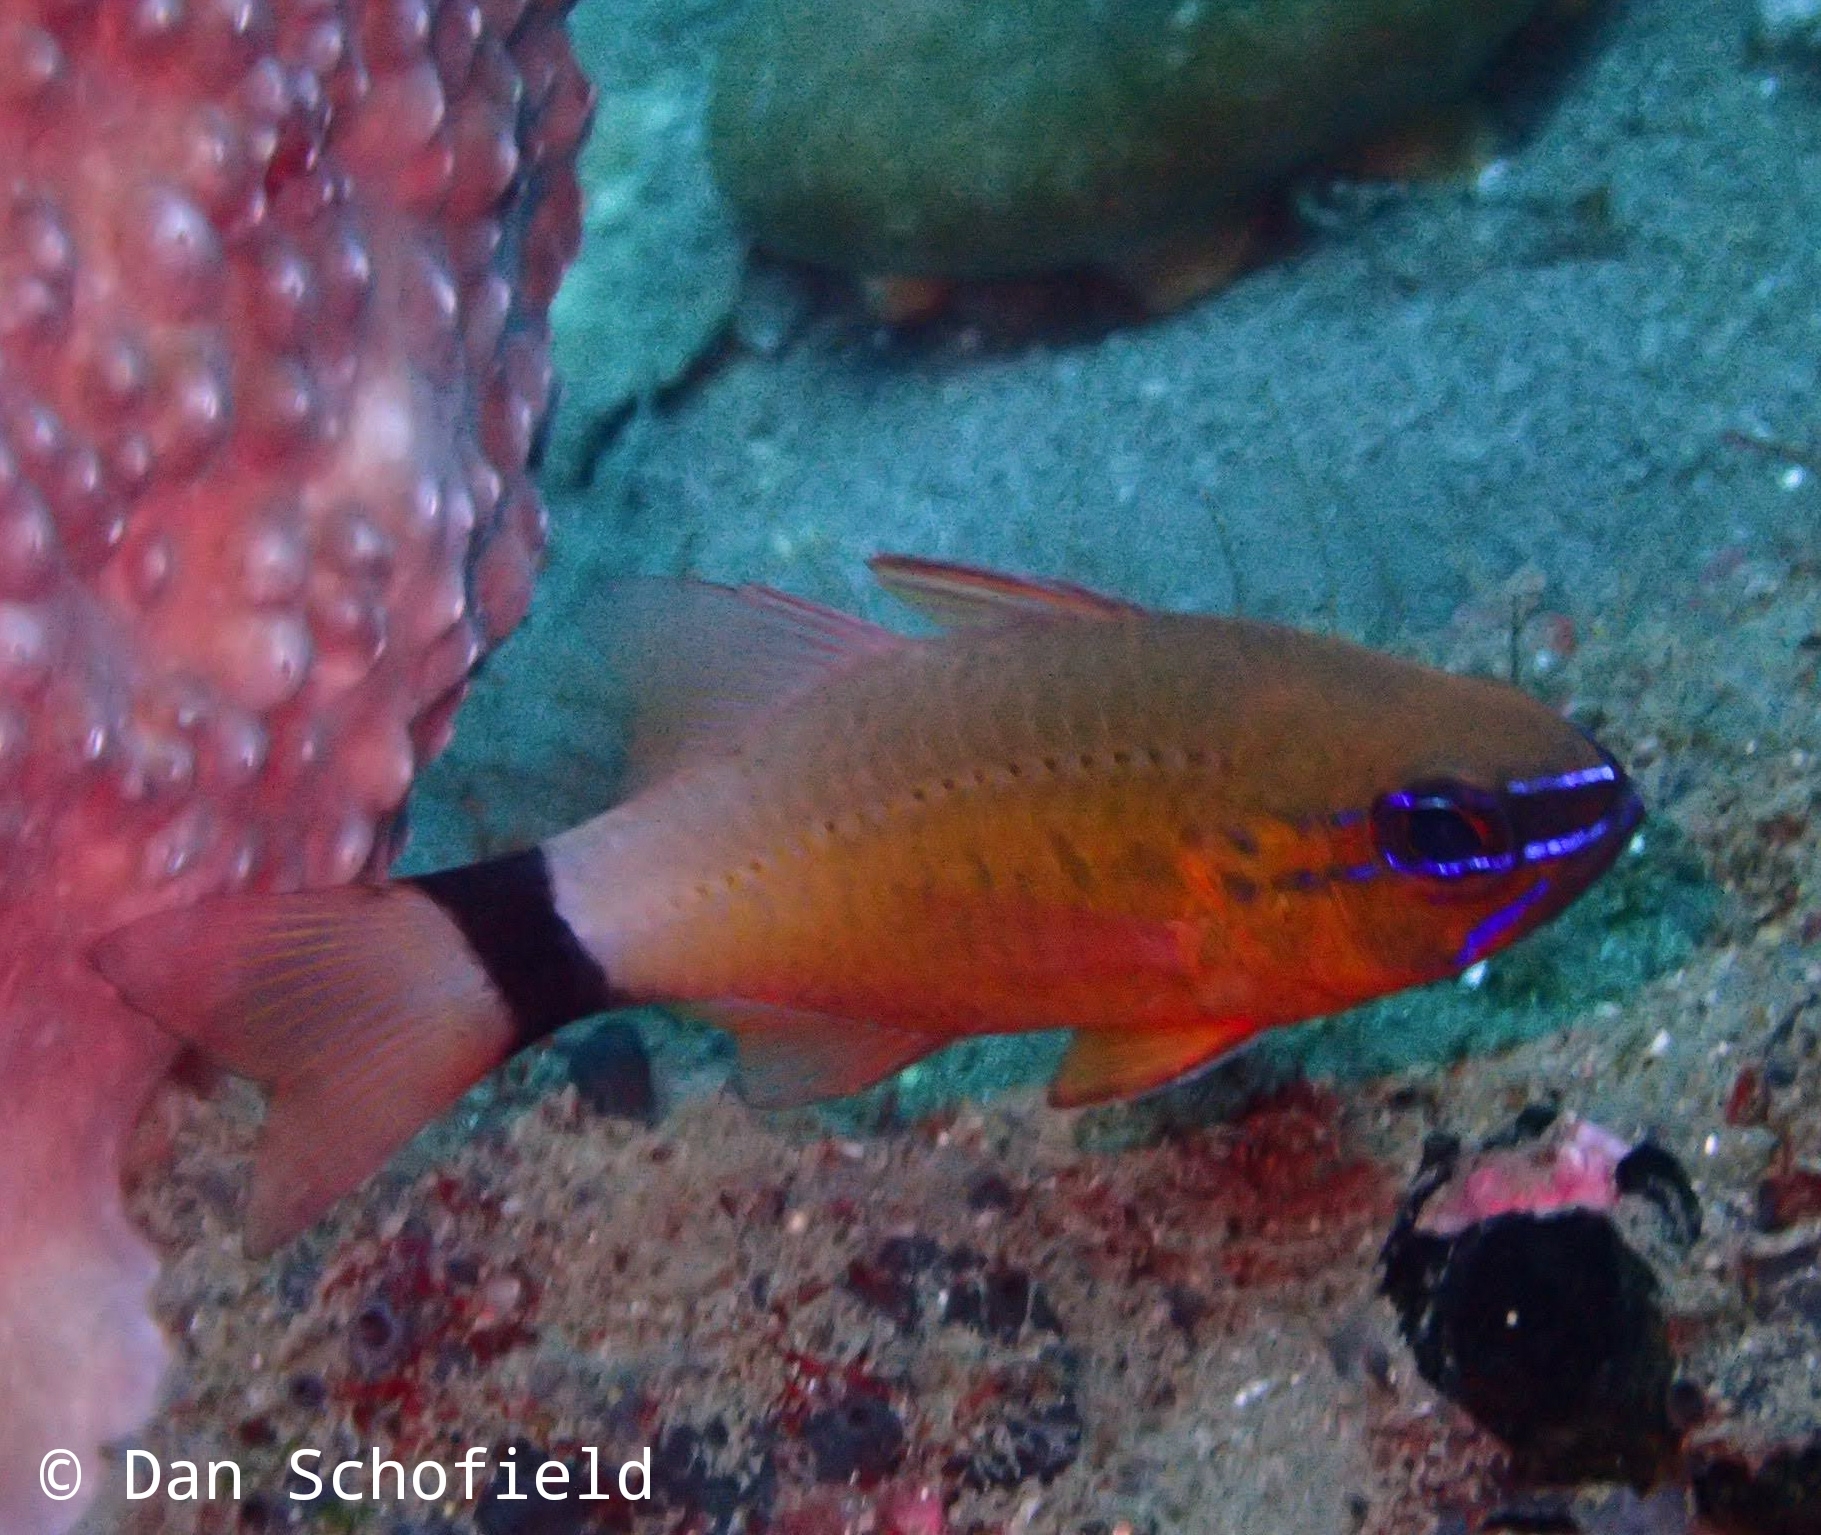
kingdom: Animalia
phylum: Chordata
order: Perciformes
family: Apogonidae
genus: Ostorhinchus
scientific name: Ostorhinchus aureus
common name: Ring-tailed cardinalfish
